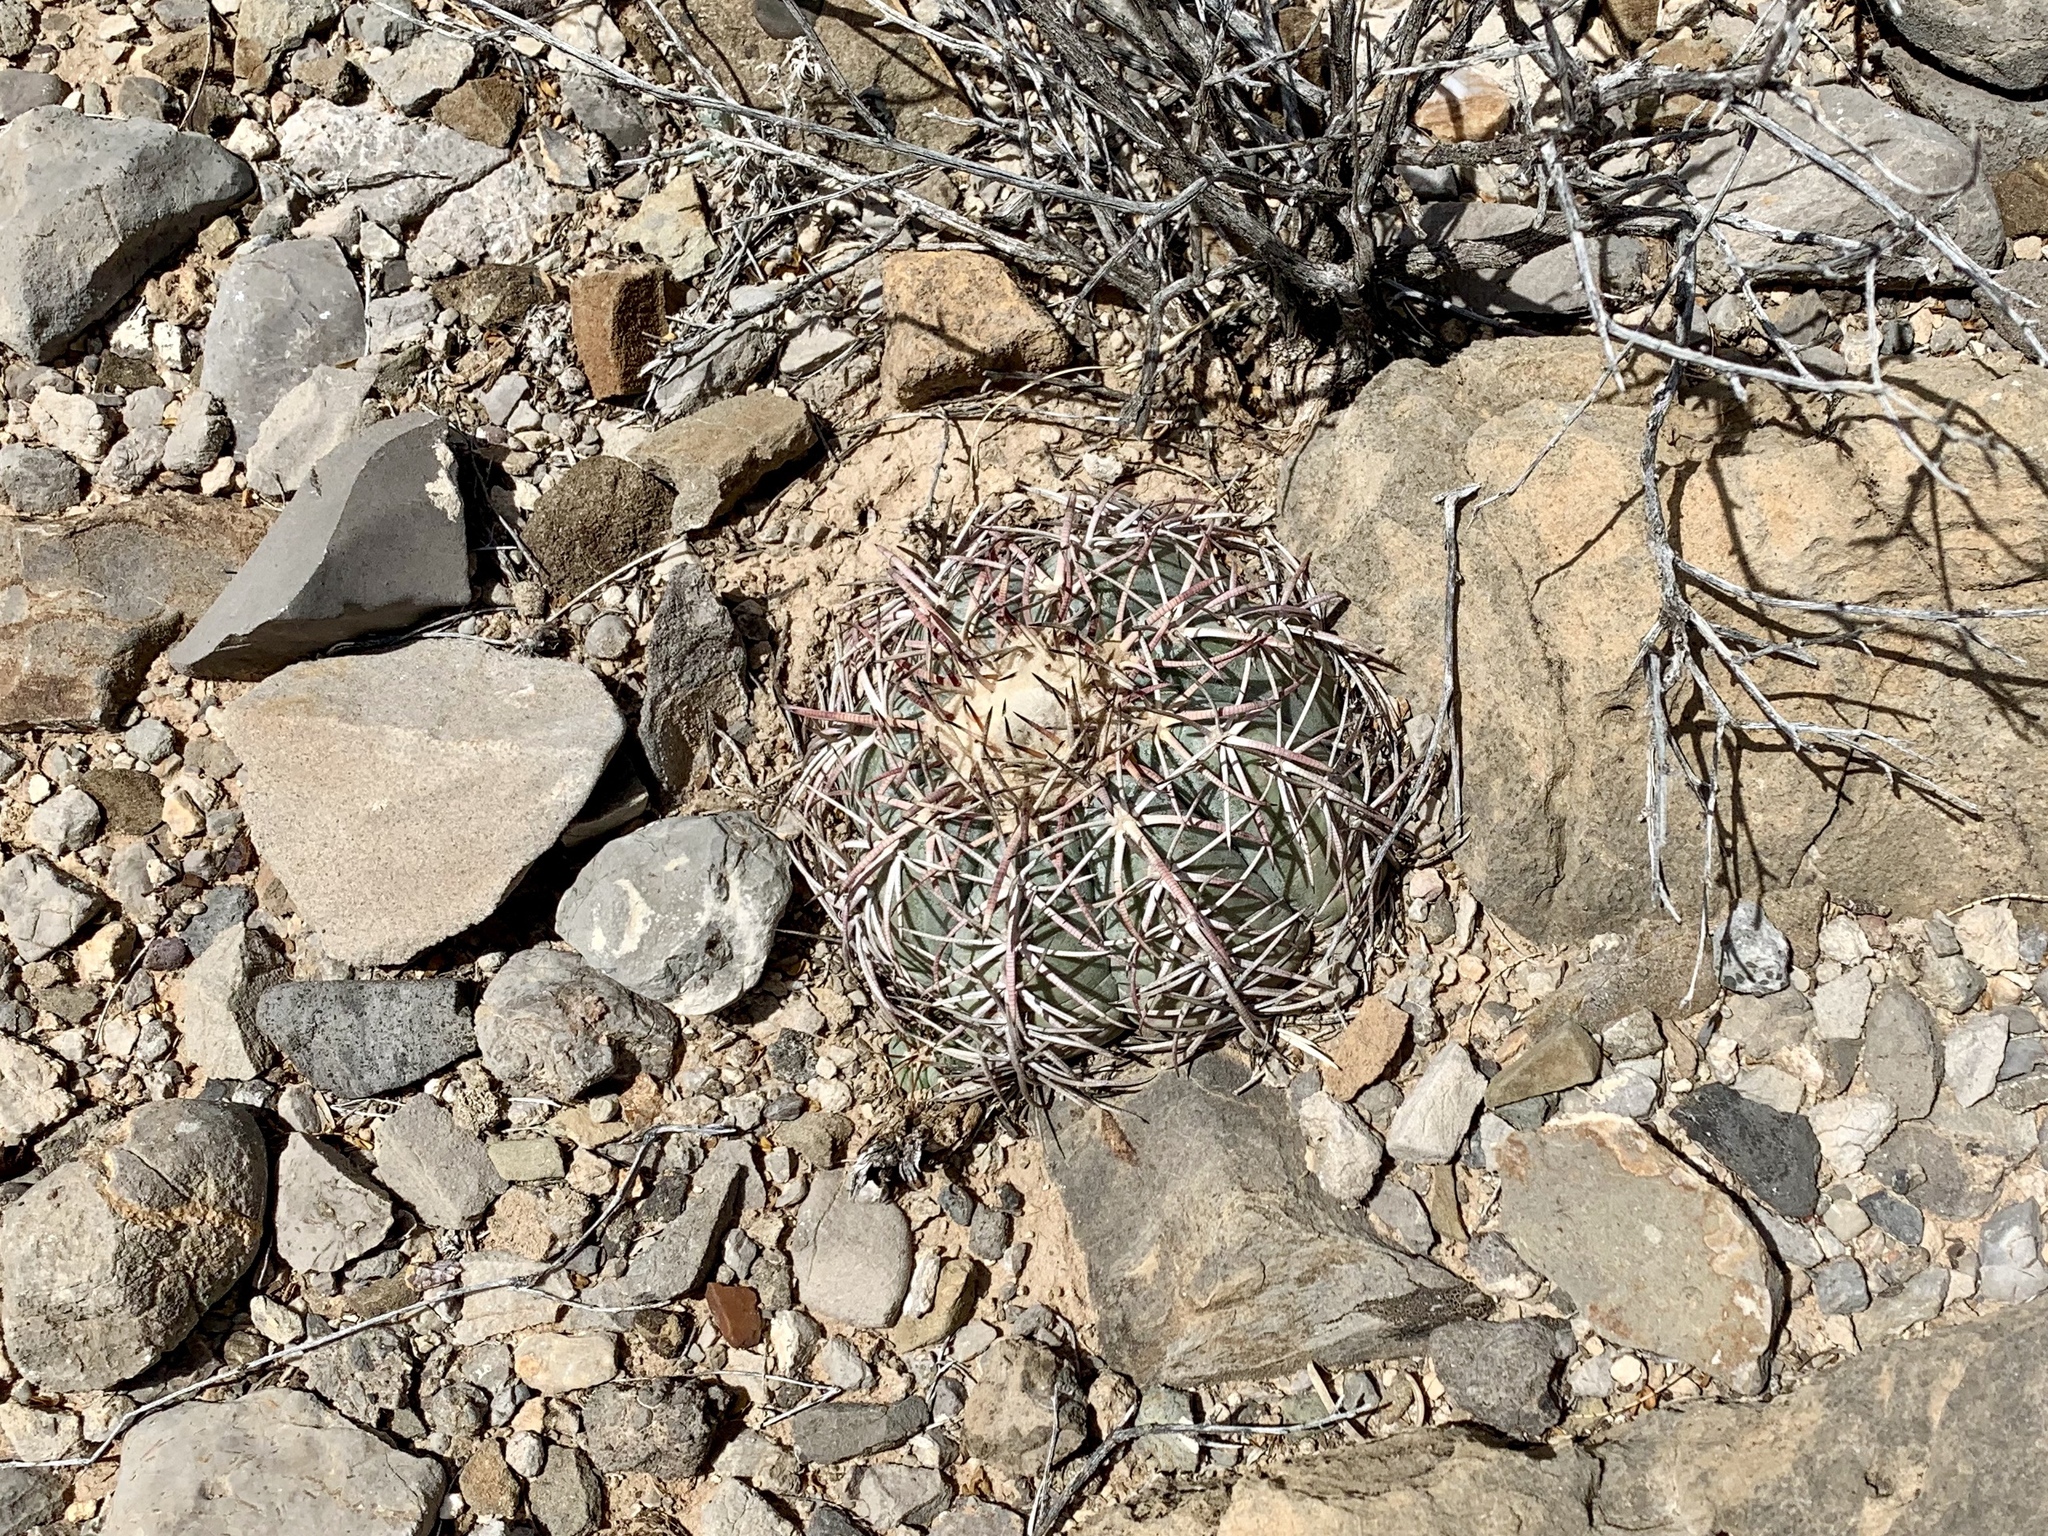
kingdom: Plantae
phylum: Tracheophyta
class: Magnoliopsida
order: Caryophyllales
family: Cactaceae
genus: Echinocactus
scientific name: Echinocactus horizonthalonius
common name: Devilshead
